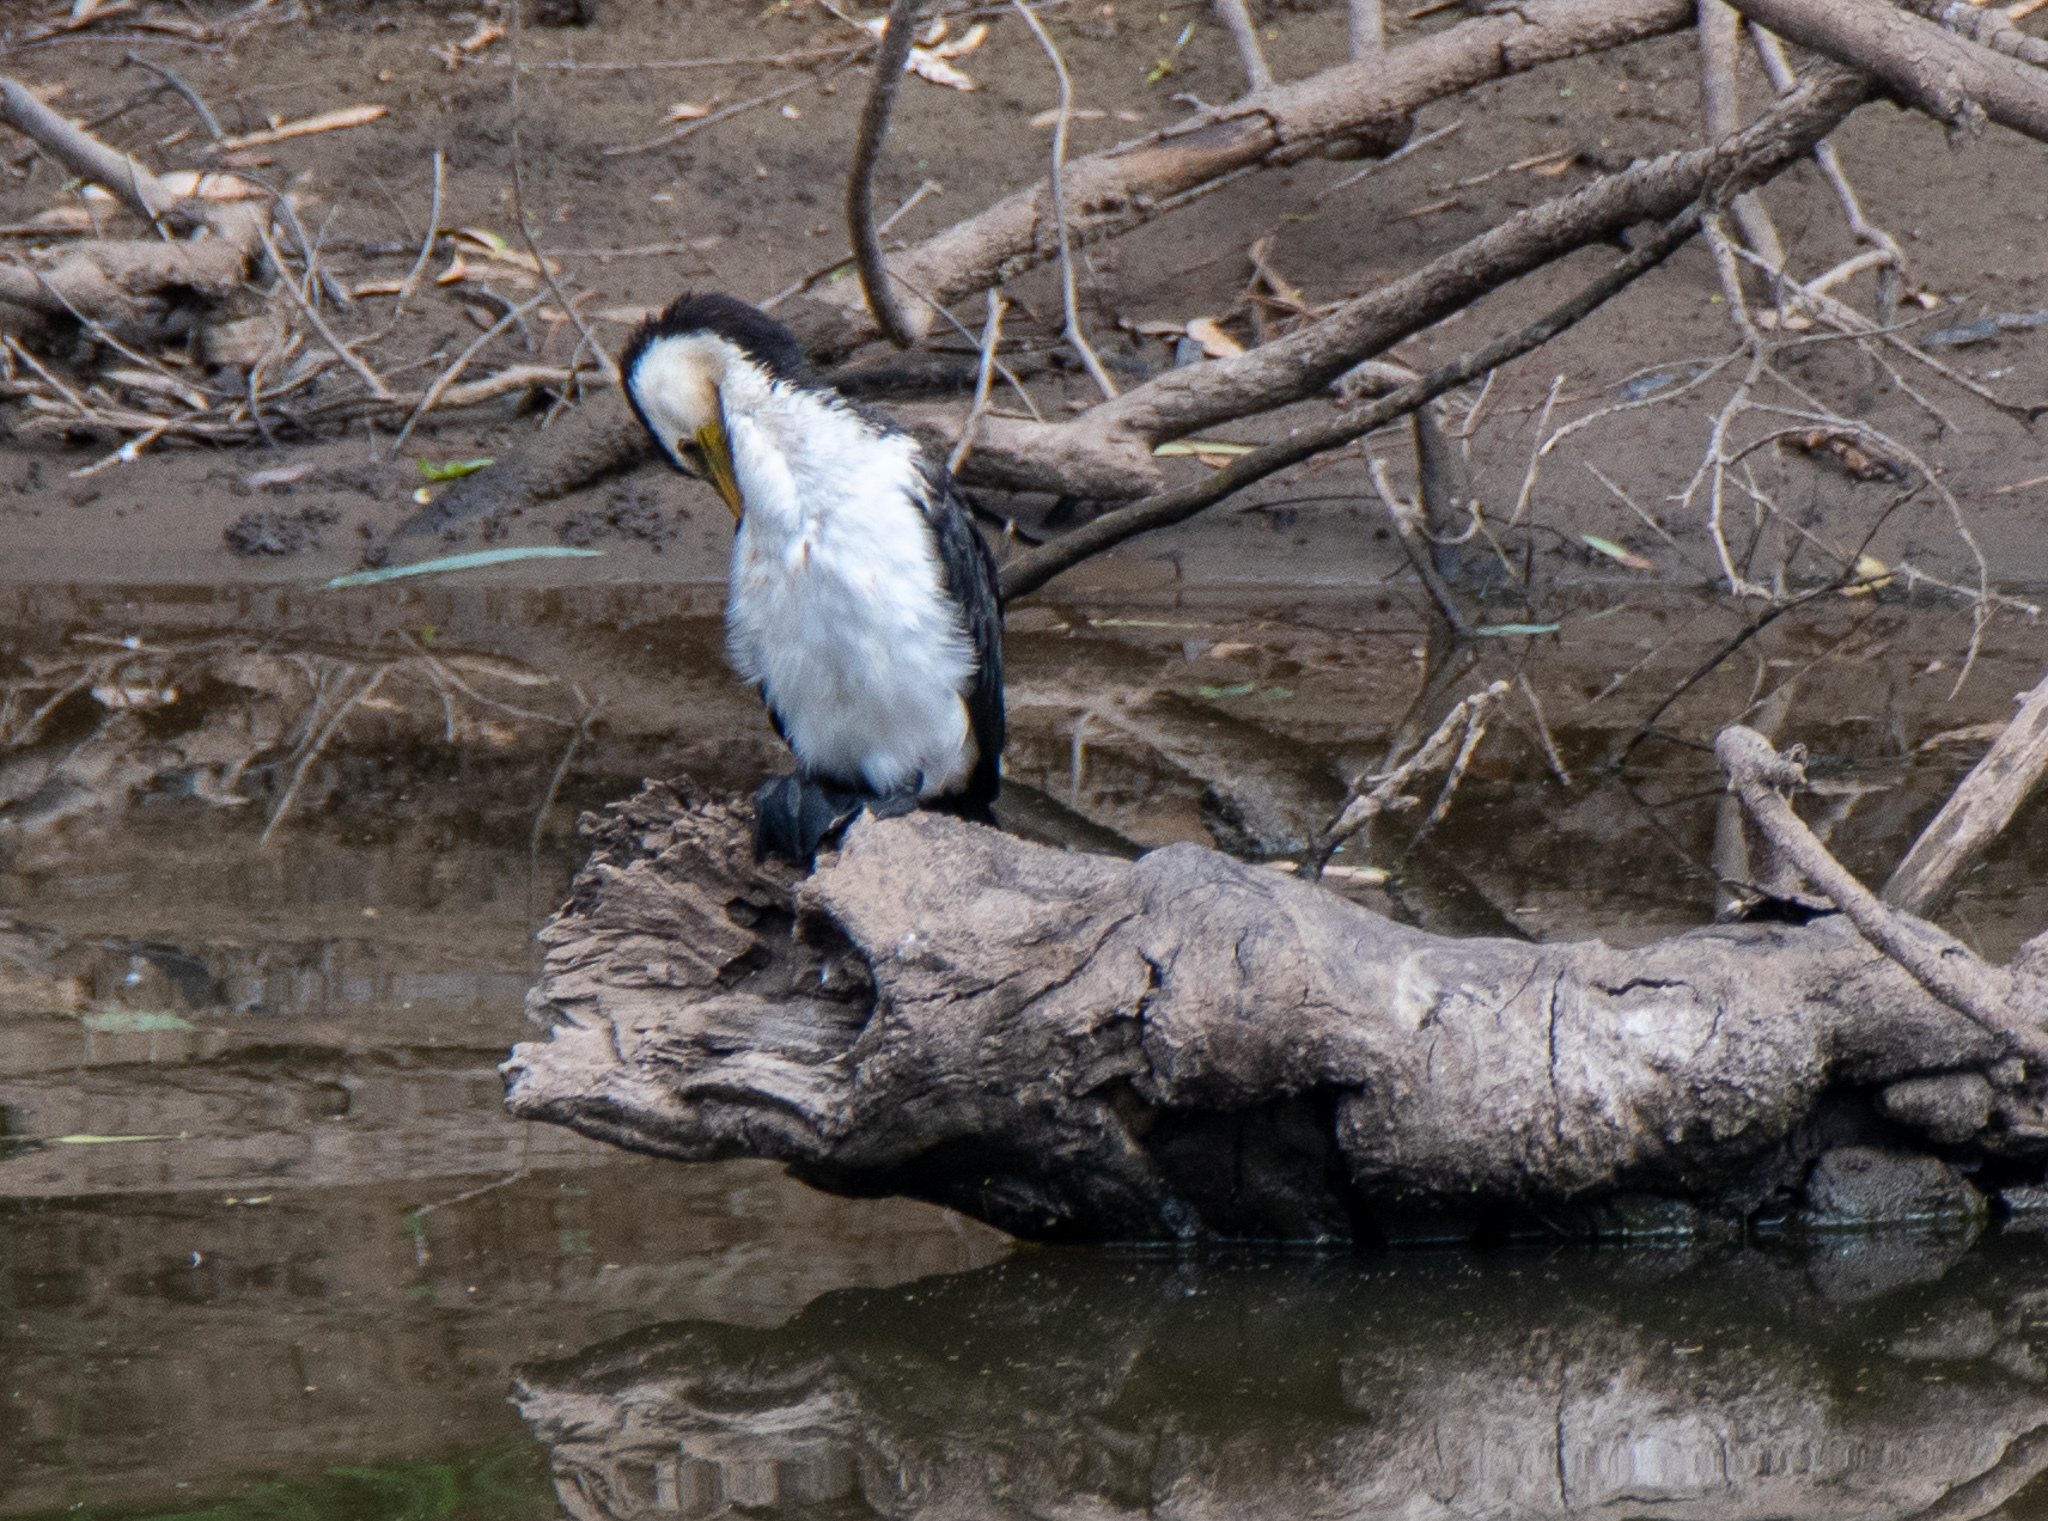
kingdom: Animalia
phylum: Chordata
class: Aves
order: Suliformes
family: Phalacrocoracidae
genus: Microcarbo
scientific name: Microcarbo melanoleucos
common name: Little pied cormorant
